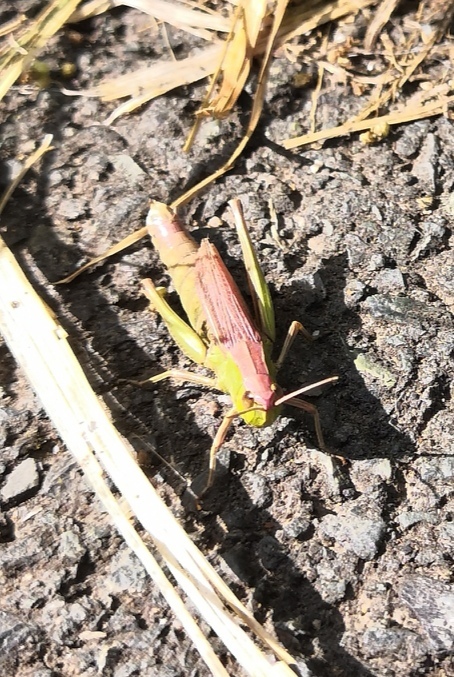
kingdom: Animalia
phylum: Arthropoda
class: Insecta
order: Orthoptera
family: Acrididae
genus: Chorthippus
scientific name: Chorthippus albomarginatus
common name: Lesser marsh grasshopper
